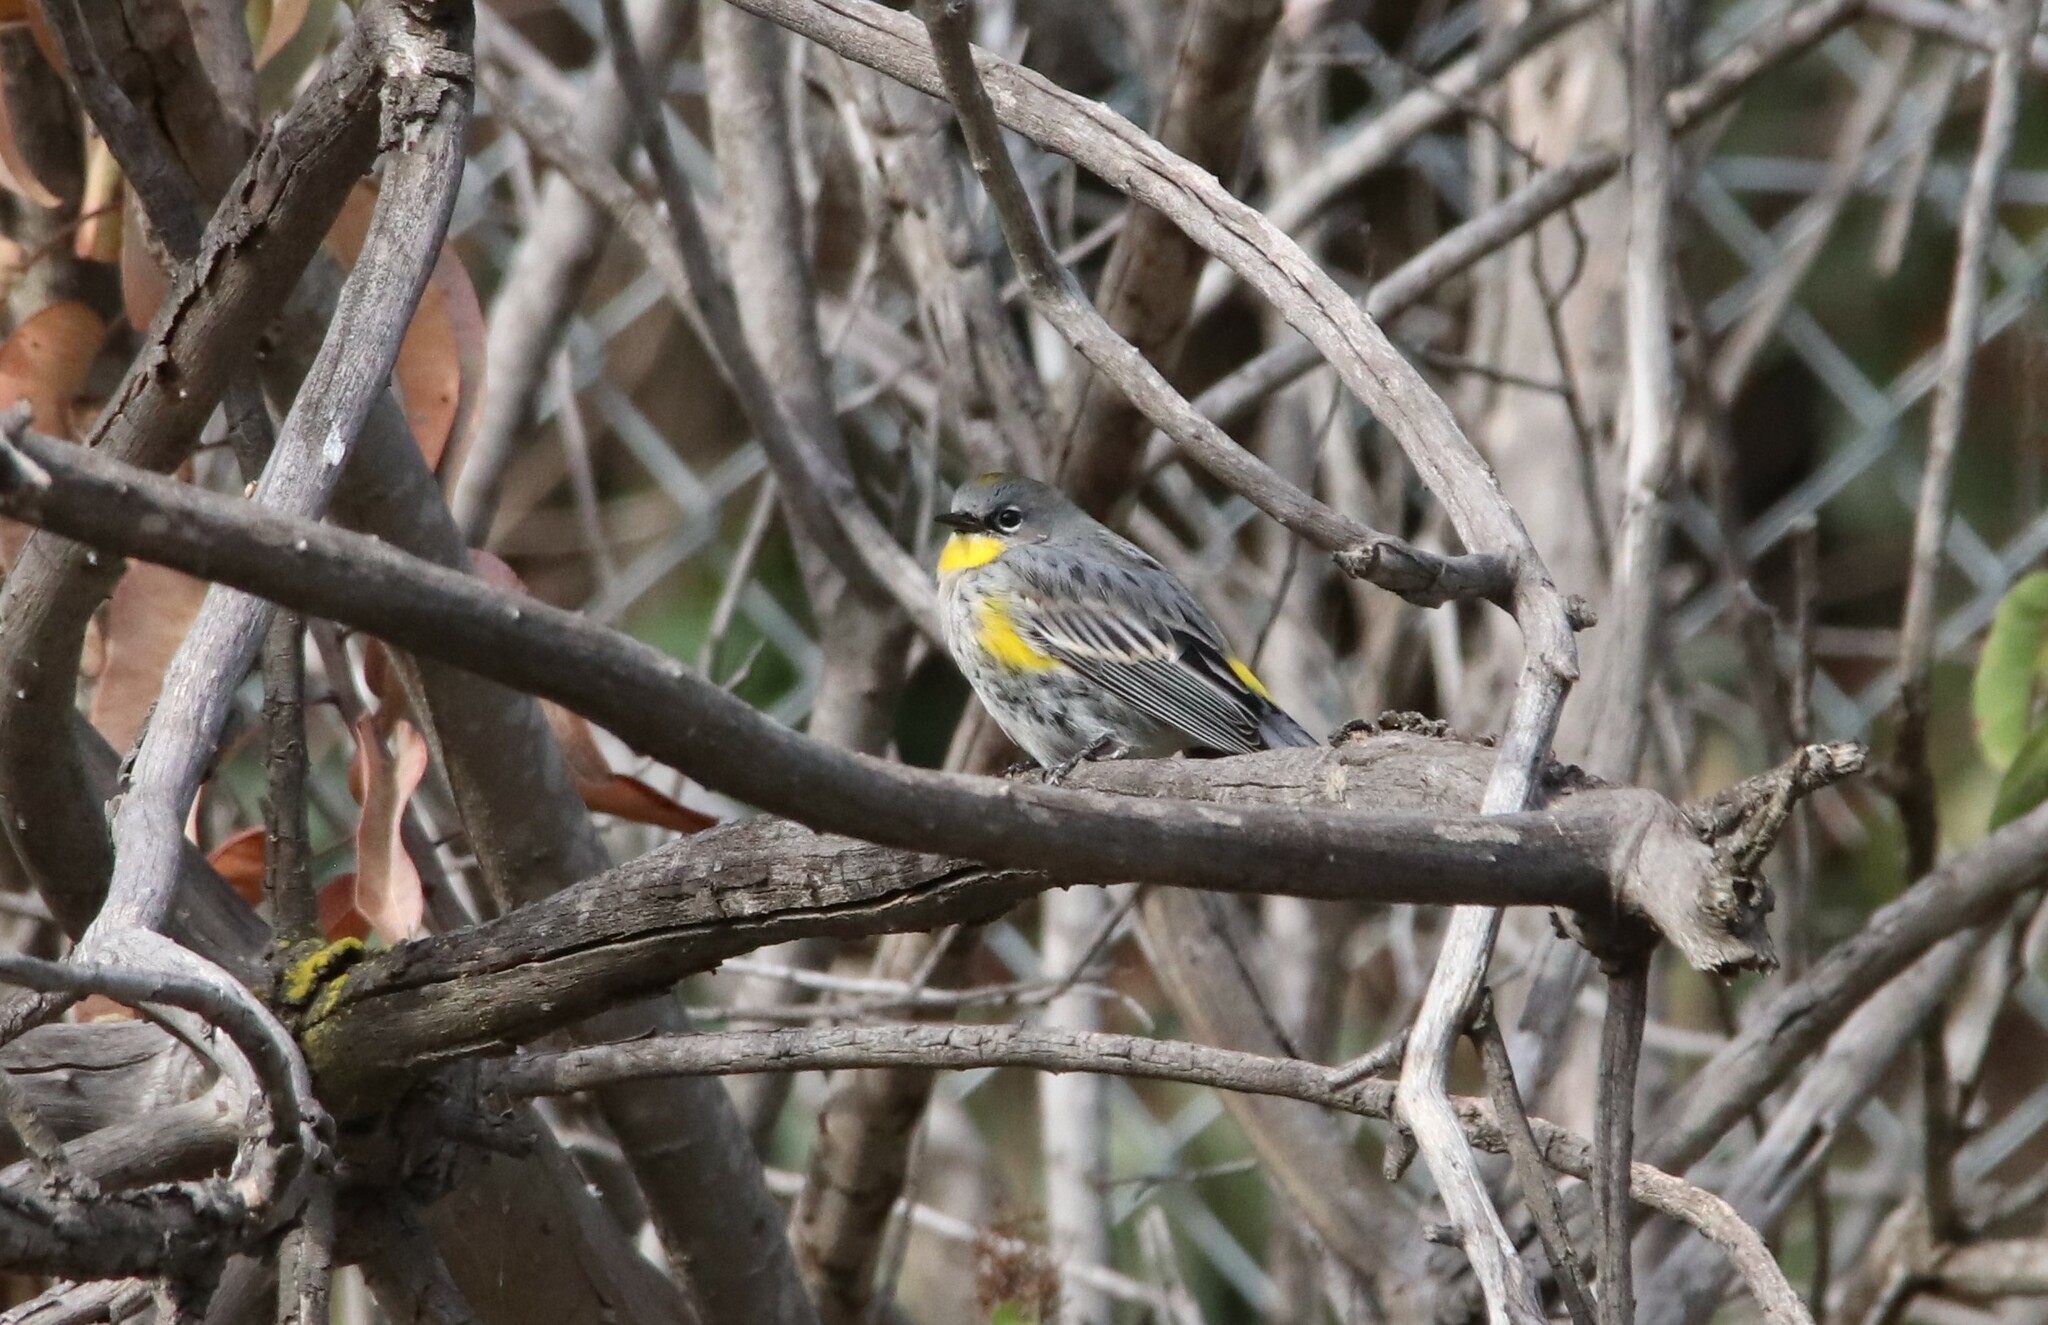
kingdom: Animalia
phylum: Chordata
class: Aves
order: Passeriformes
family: Parulidae
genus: Setophaga
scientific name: Setophaga auduboni
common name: Audubon's warbler
